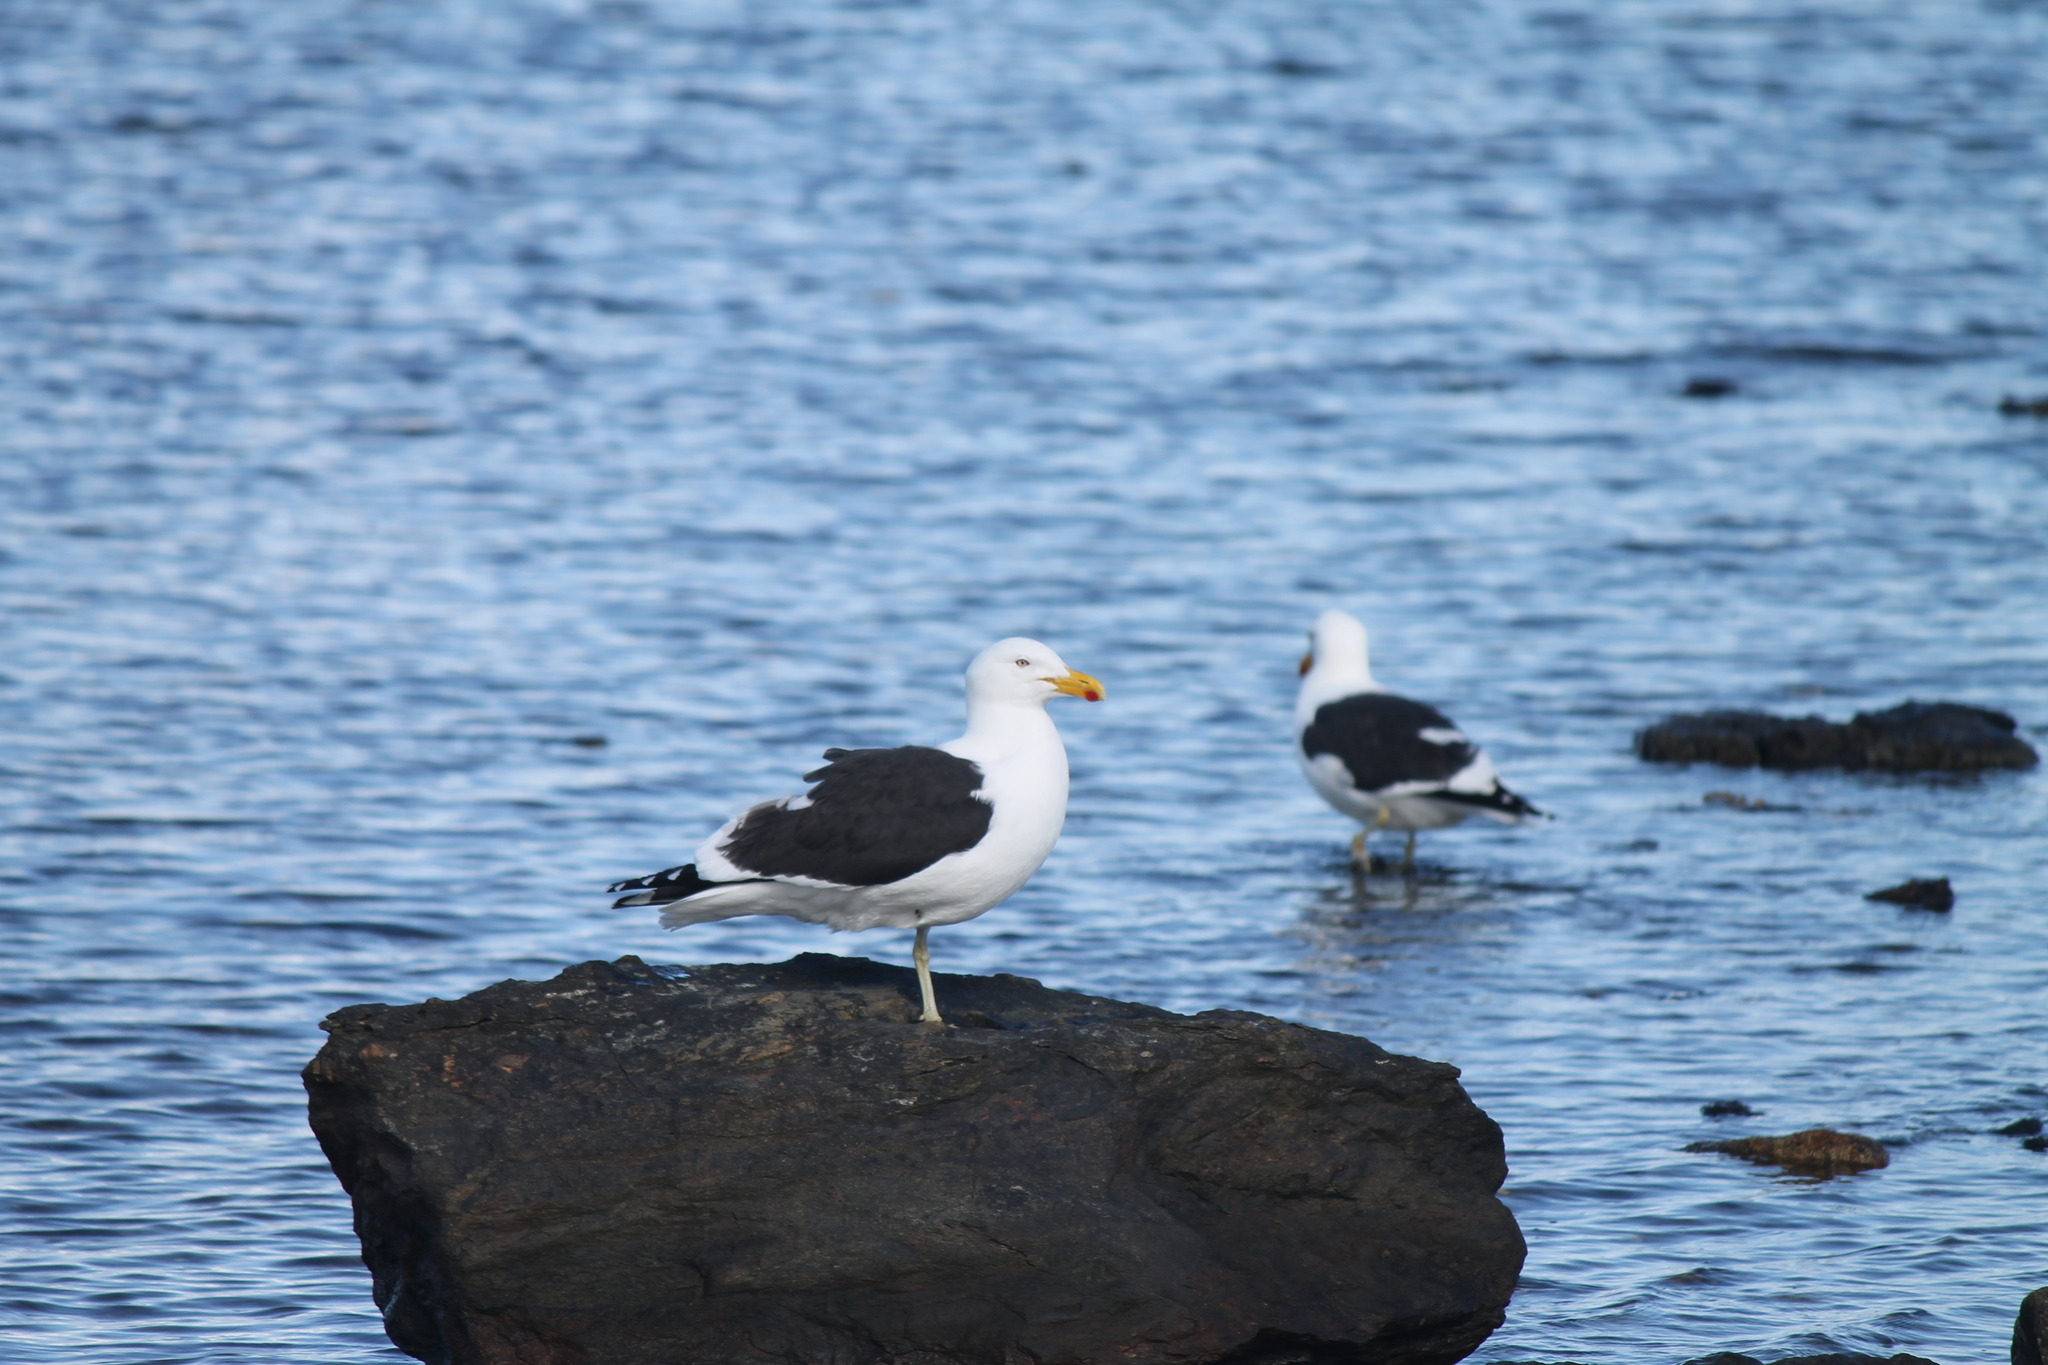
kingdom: Animalia
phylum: Chordata
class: Aves
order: Charadriiformes
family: Laridae
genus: Larus
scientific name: Larus dominicanus
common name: Kelp gull
